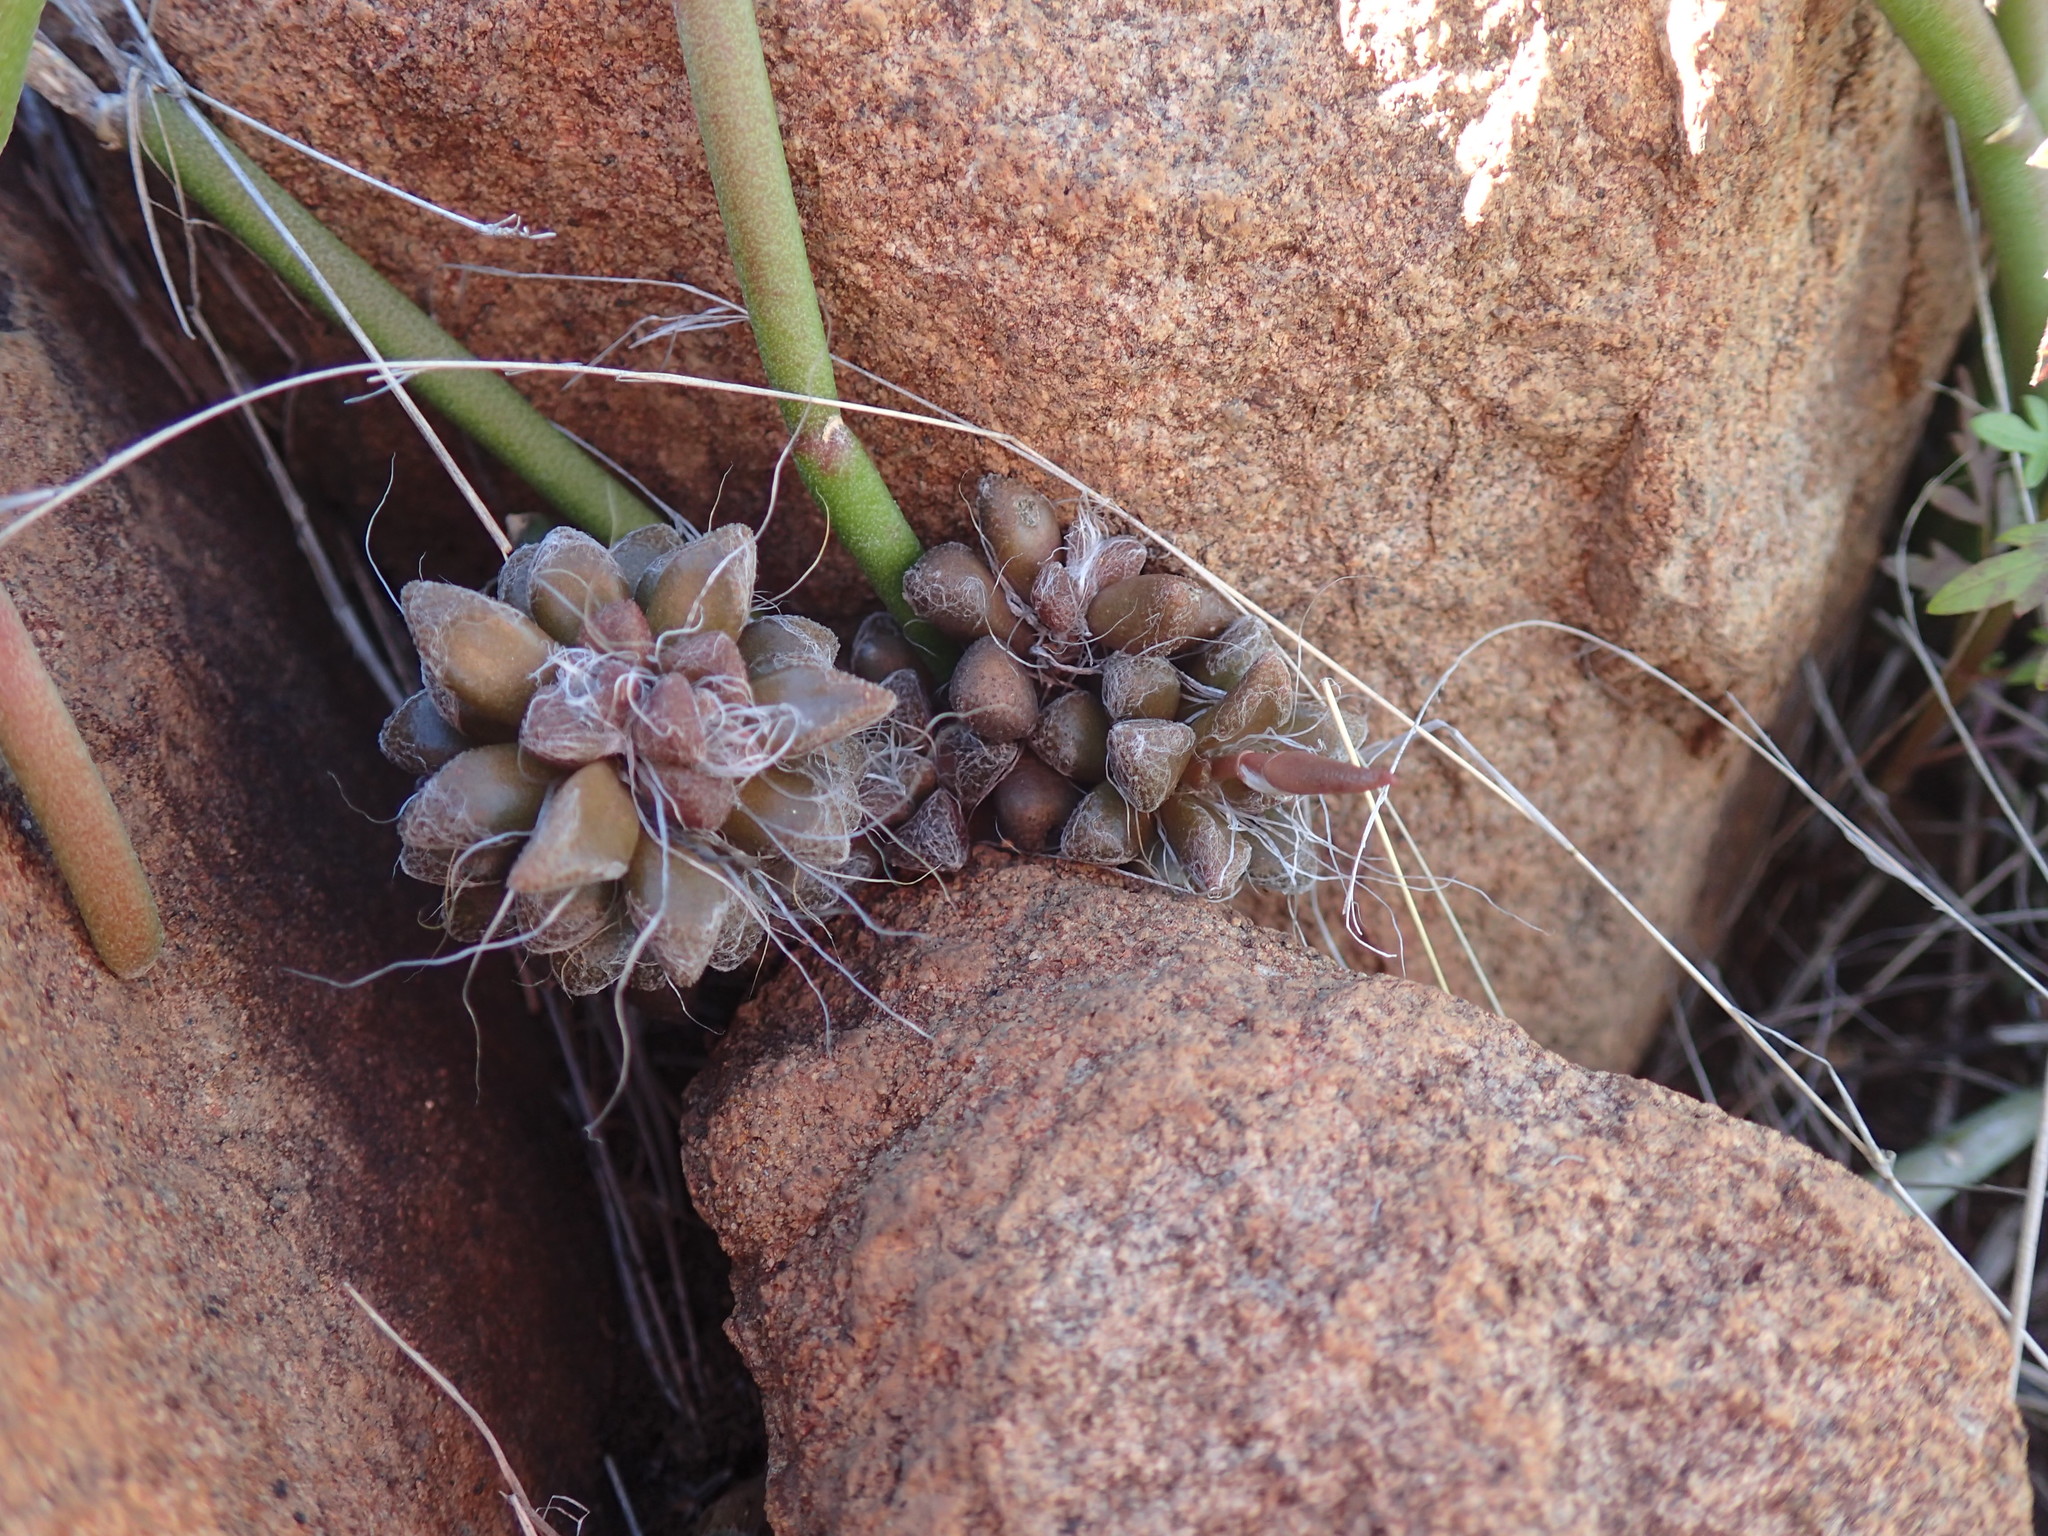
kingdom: Plantae
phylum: Tracheophyta
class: Magnoliopsida
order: Caryophyllales
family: Anacampserotaceae
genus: Anacampseros
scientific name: Anacampseros filamentosa
